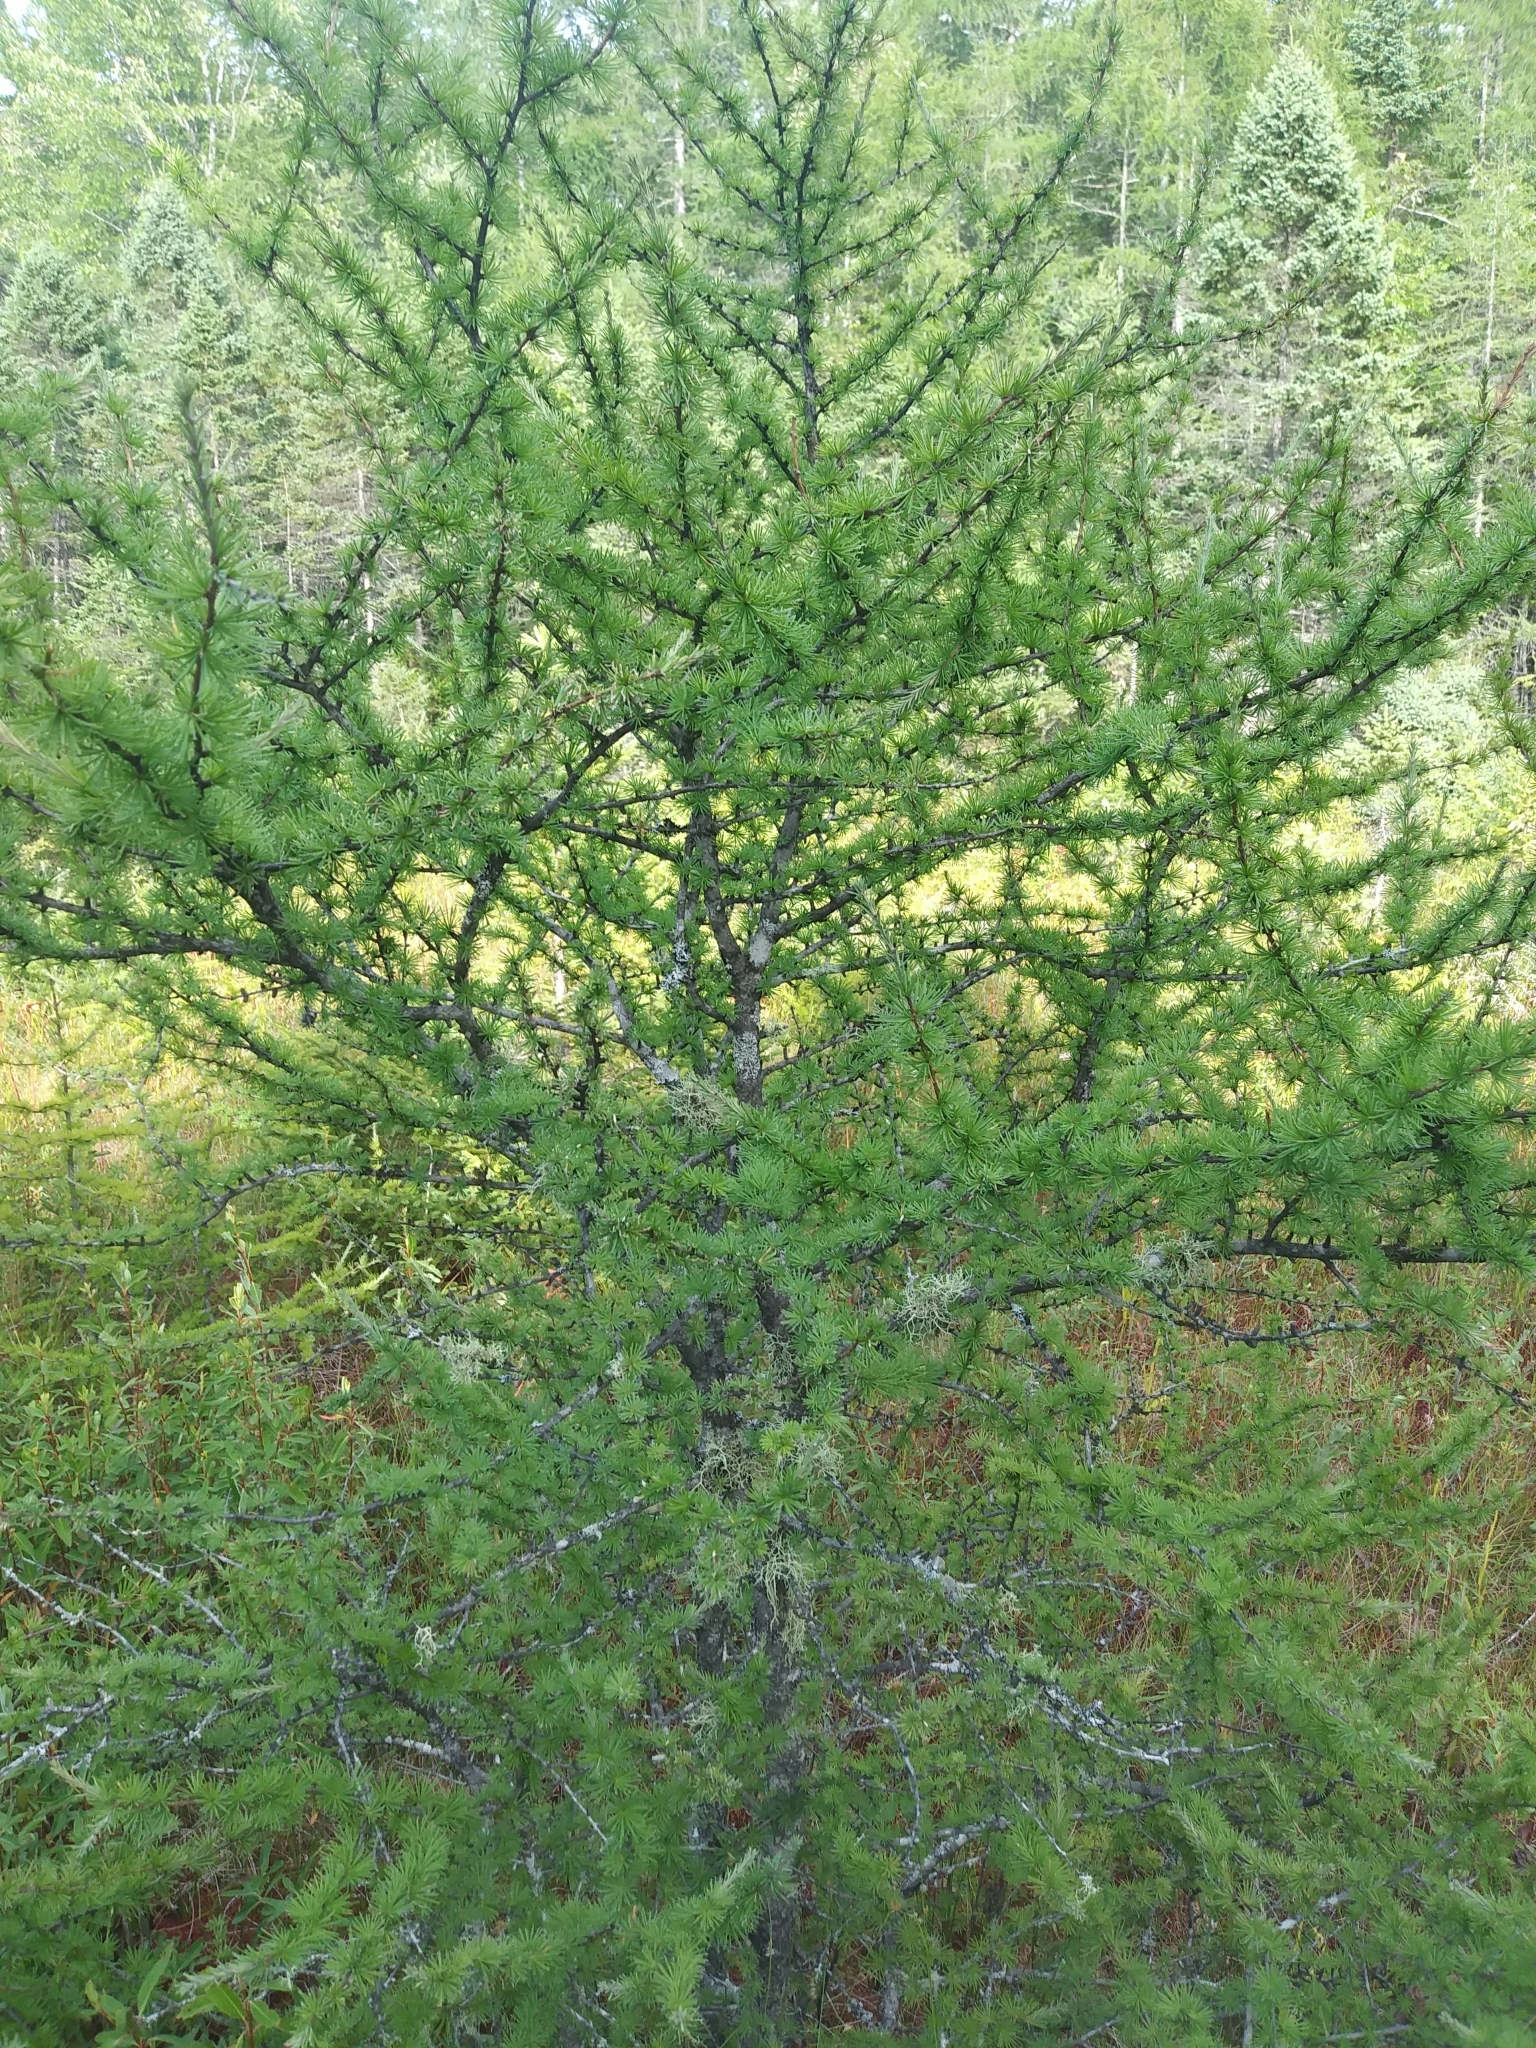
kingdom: Plantae
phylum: Tracheophyta
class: Pinopsida
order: Pinales
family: Pinaceae
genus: Larix
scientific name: Larix laricina
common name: American larch
